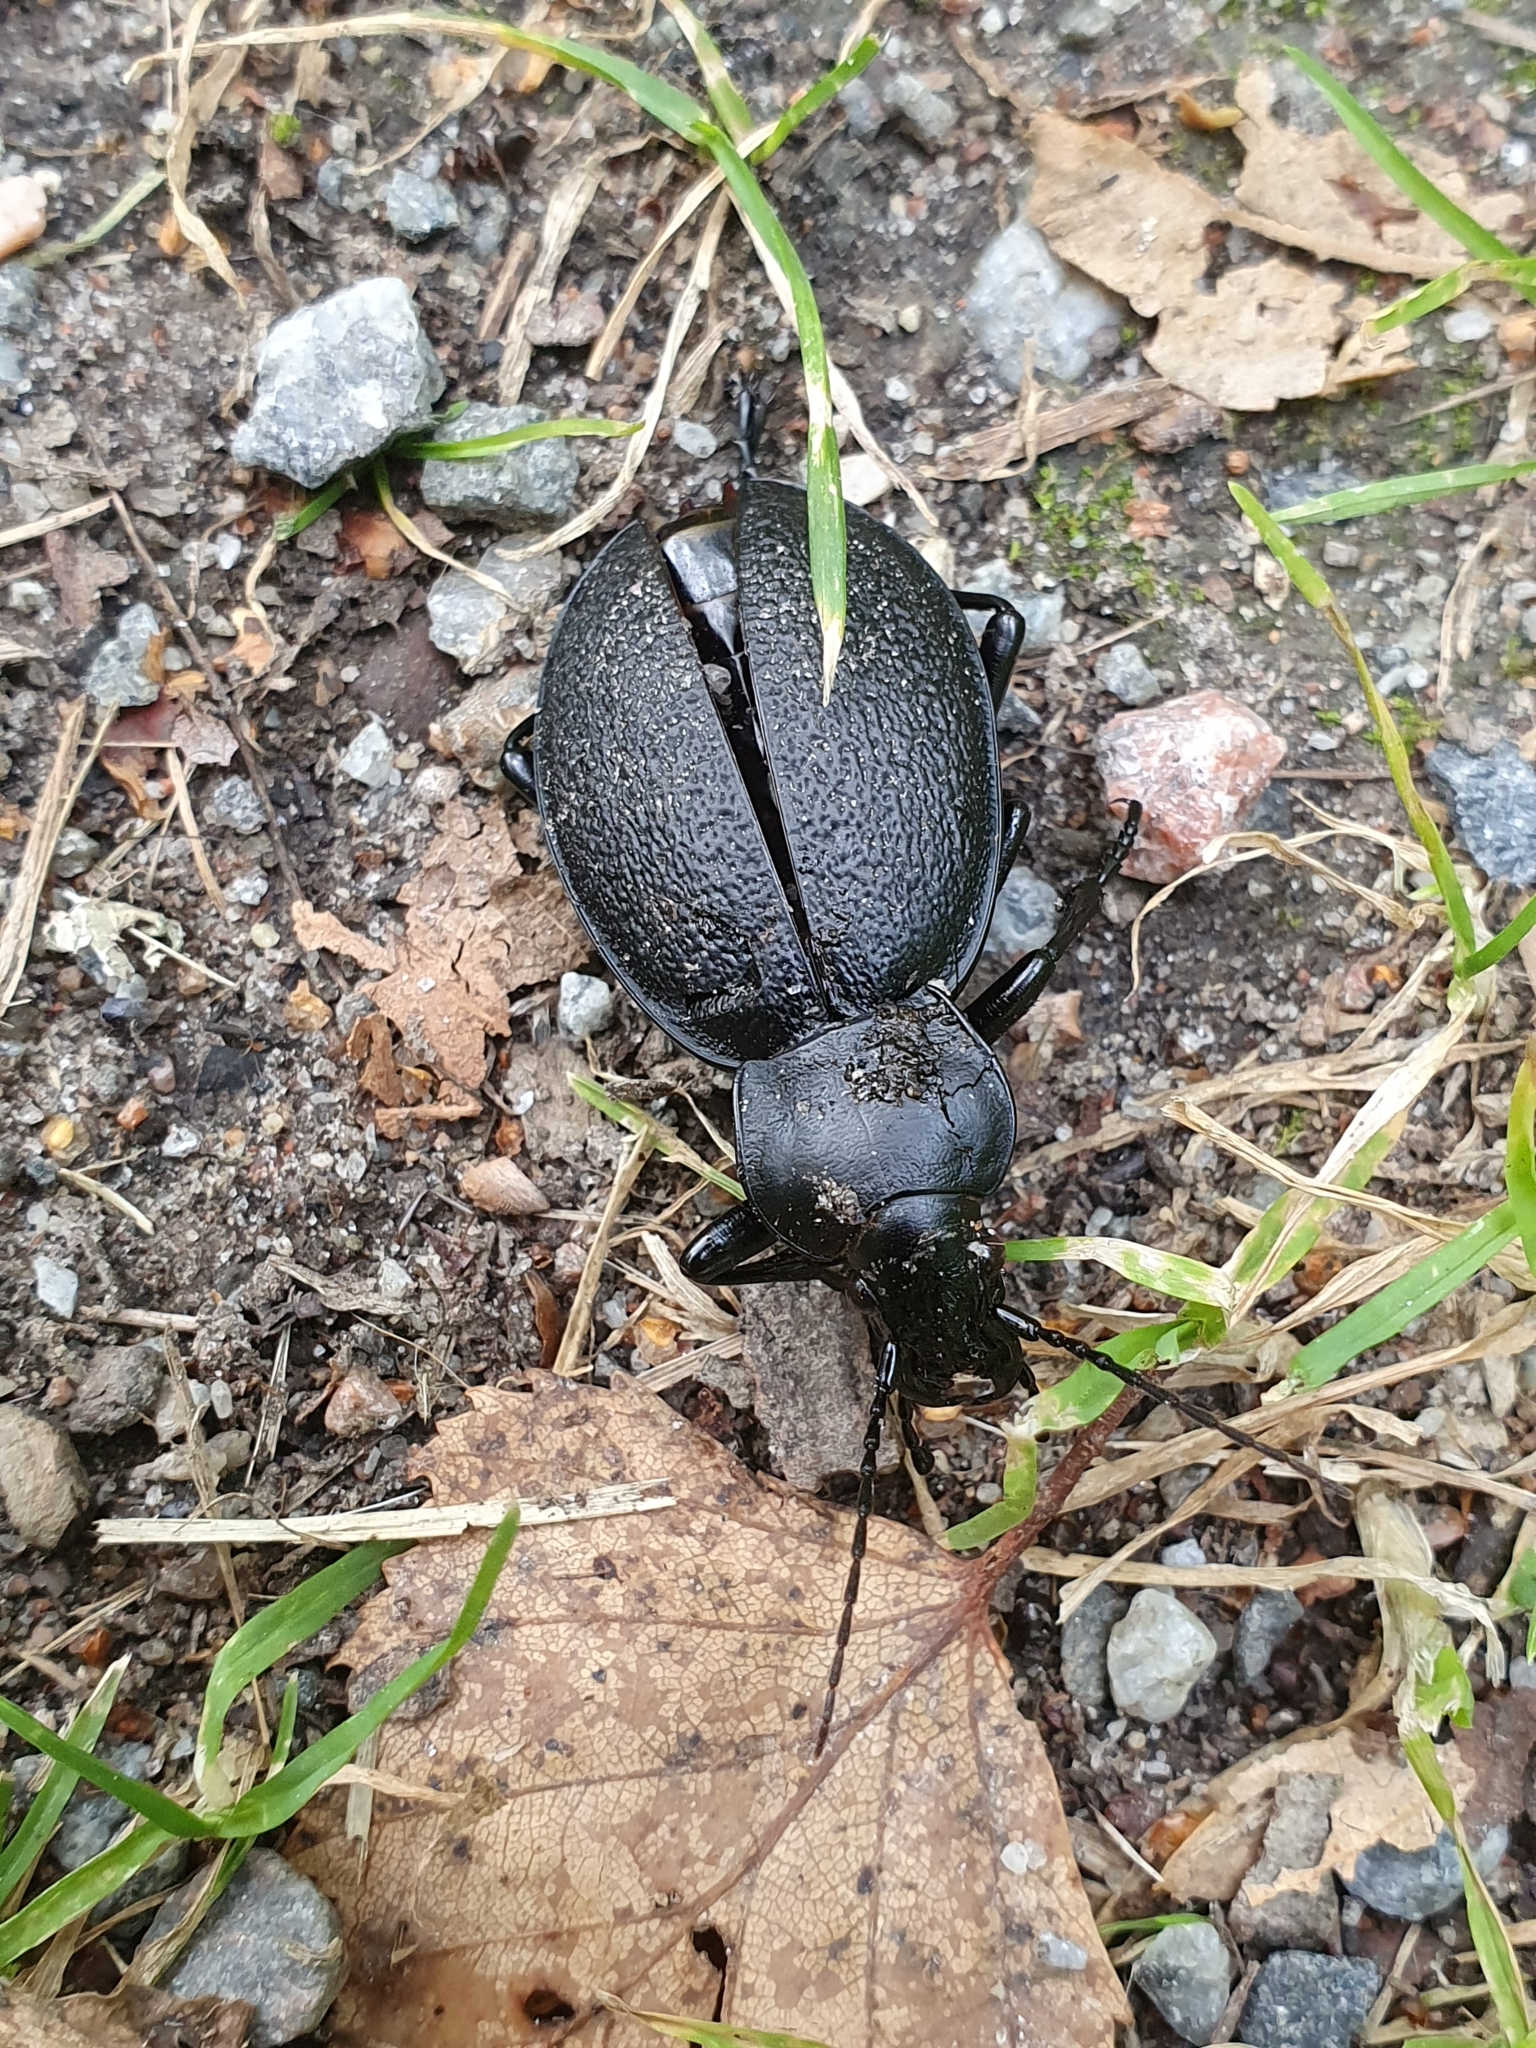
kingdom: Animalia
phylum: Arthropoda
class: Insecta
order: Coleoptera
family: Carabidae
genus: Carabus
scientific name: Carabus coriaceus
